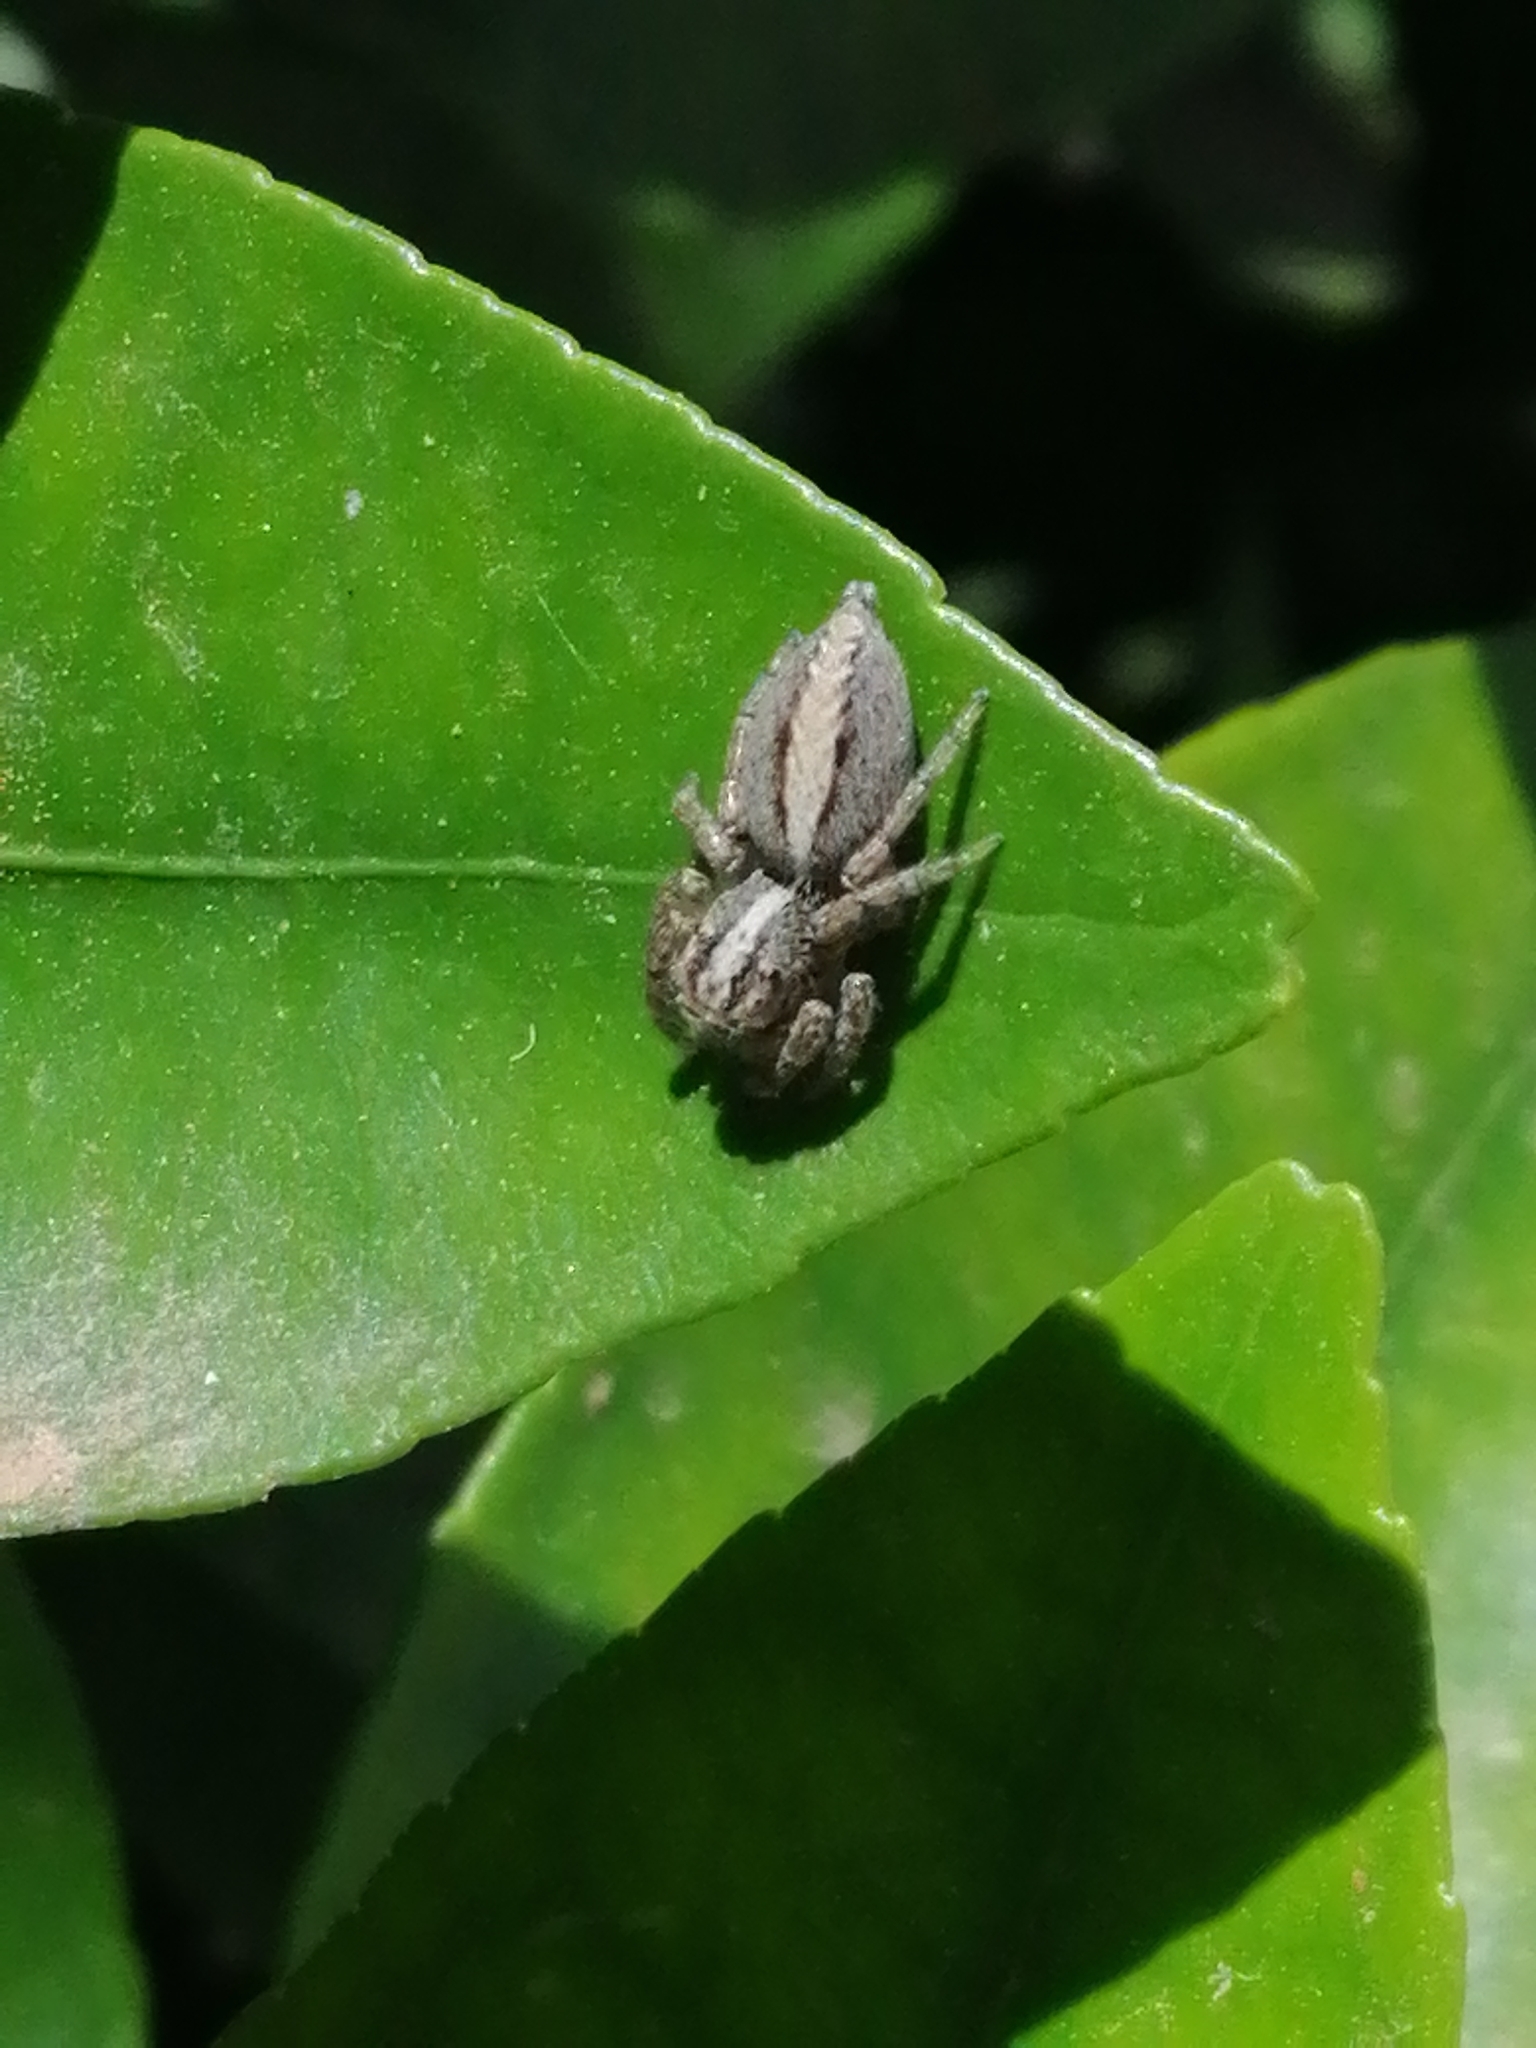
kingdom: Animalia
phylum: Arthropoda
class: Arachnida
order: Araneae
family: Salticidae
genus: Frigga
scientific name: Frigga crocuta
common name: Jumping spiders
